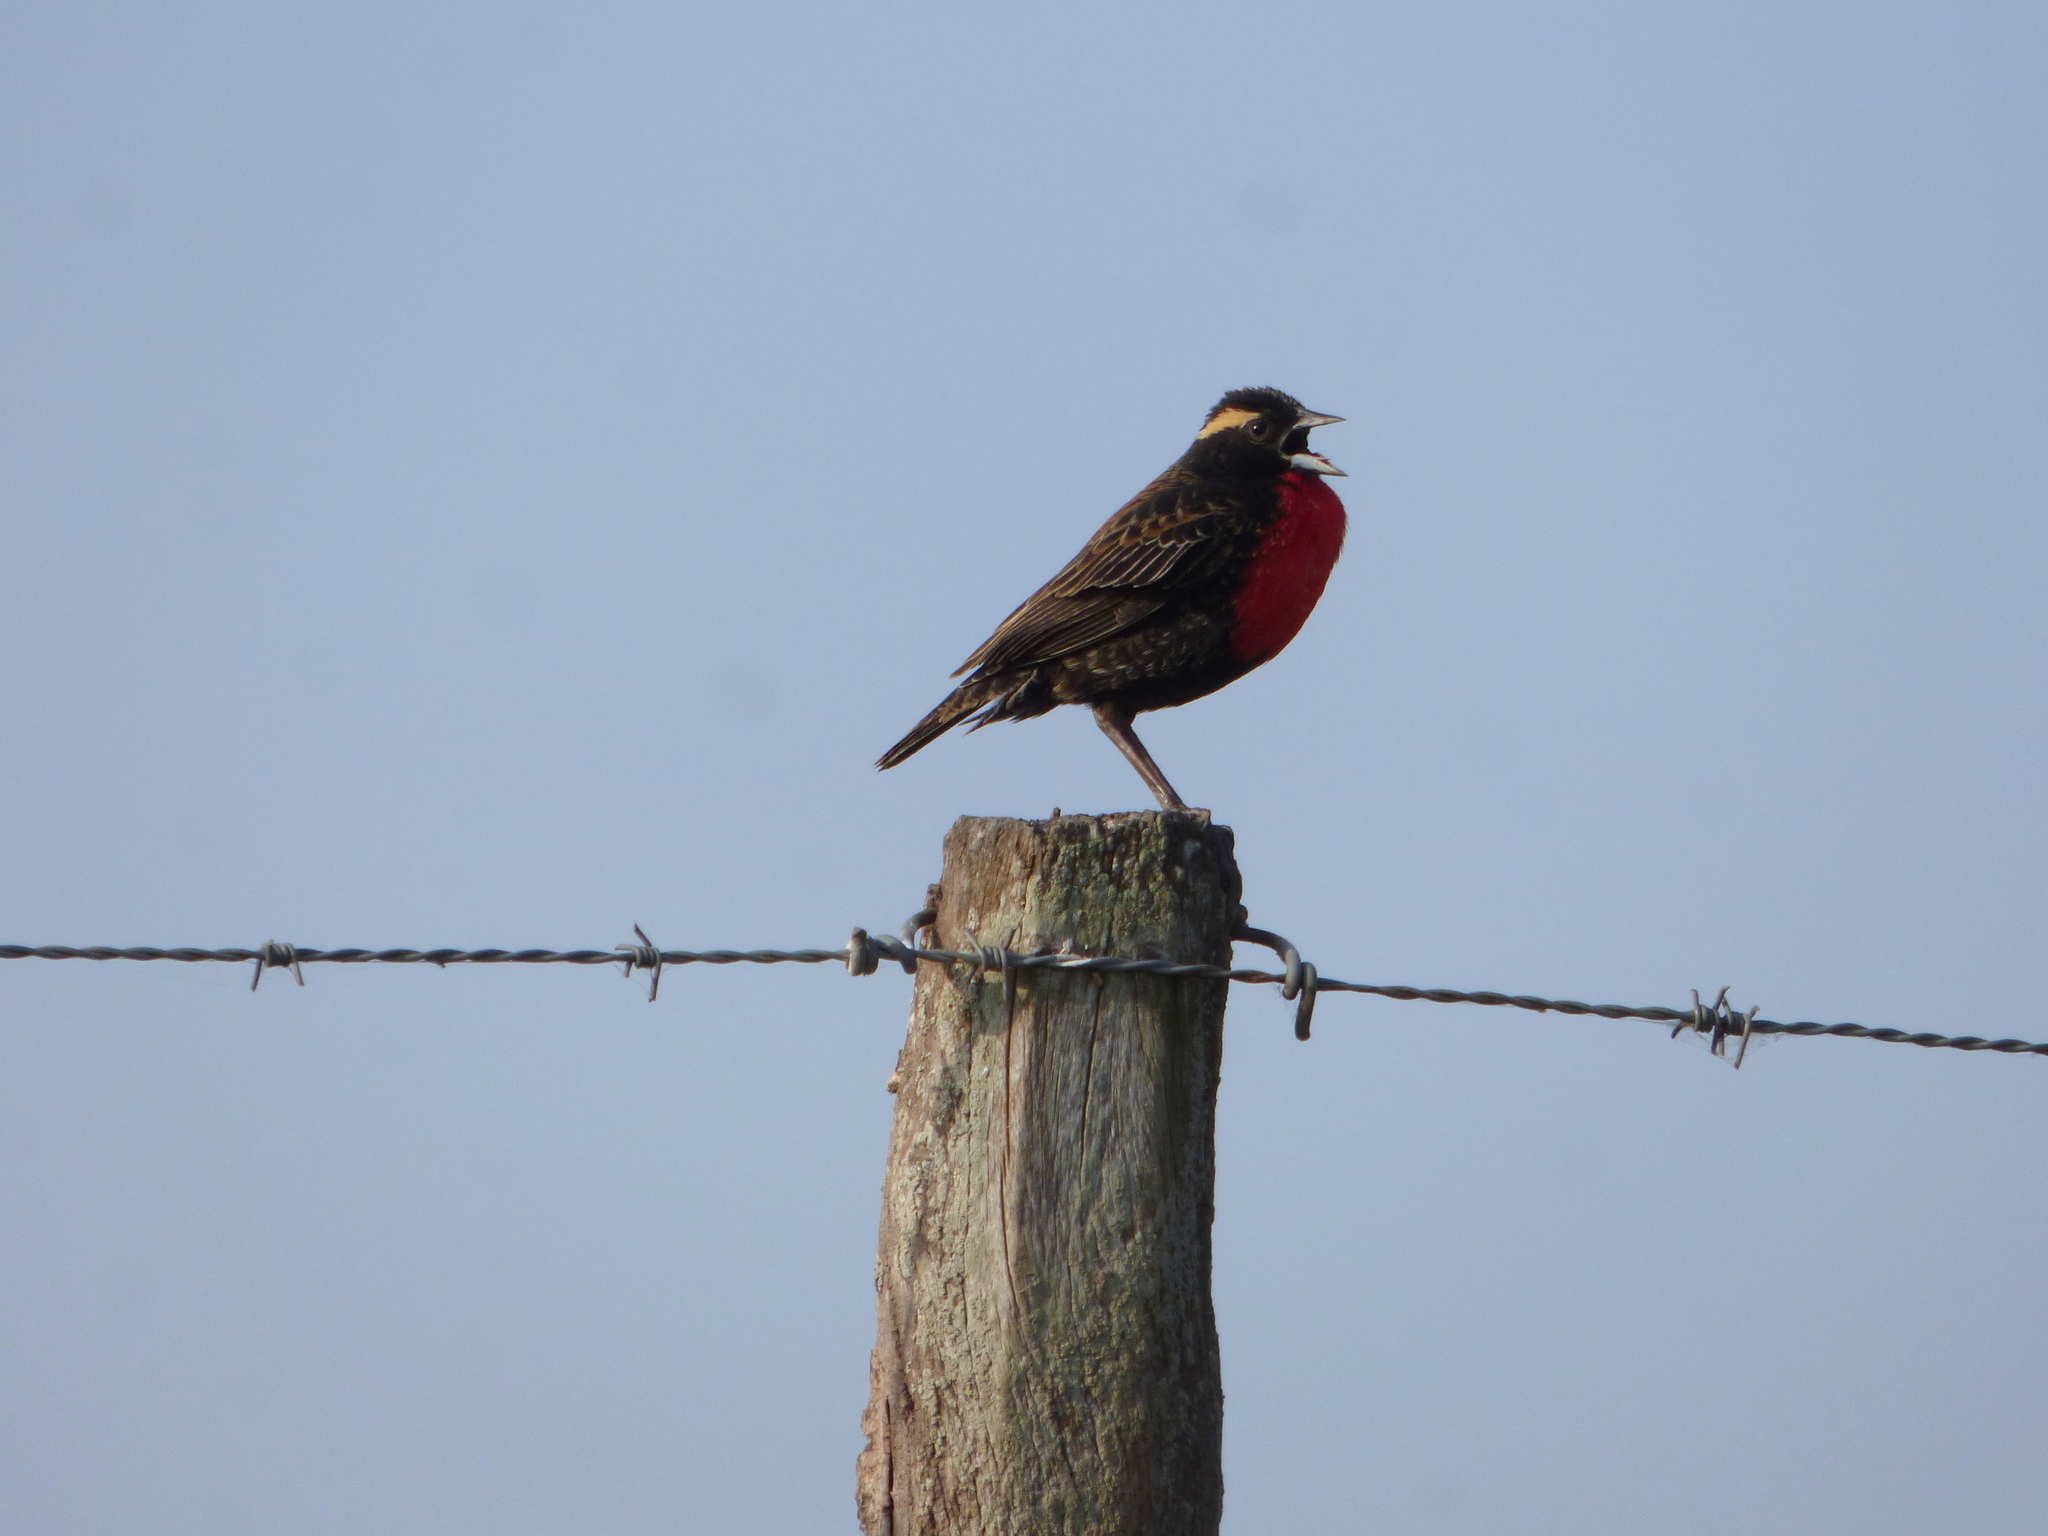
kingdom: Animalia
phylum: Chordata
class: Aves
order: Passeriformes
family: Icteridae
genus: Sturnella
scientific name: Sturnella superciliaris
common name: White-browed blackbird
